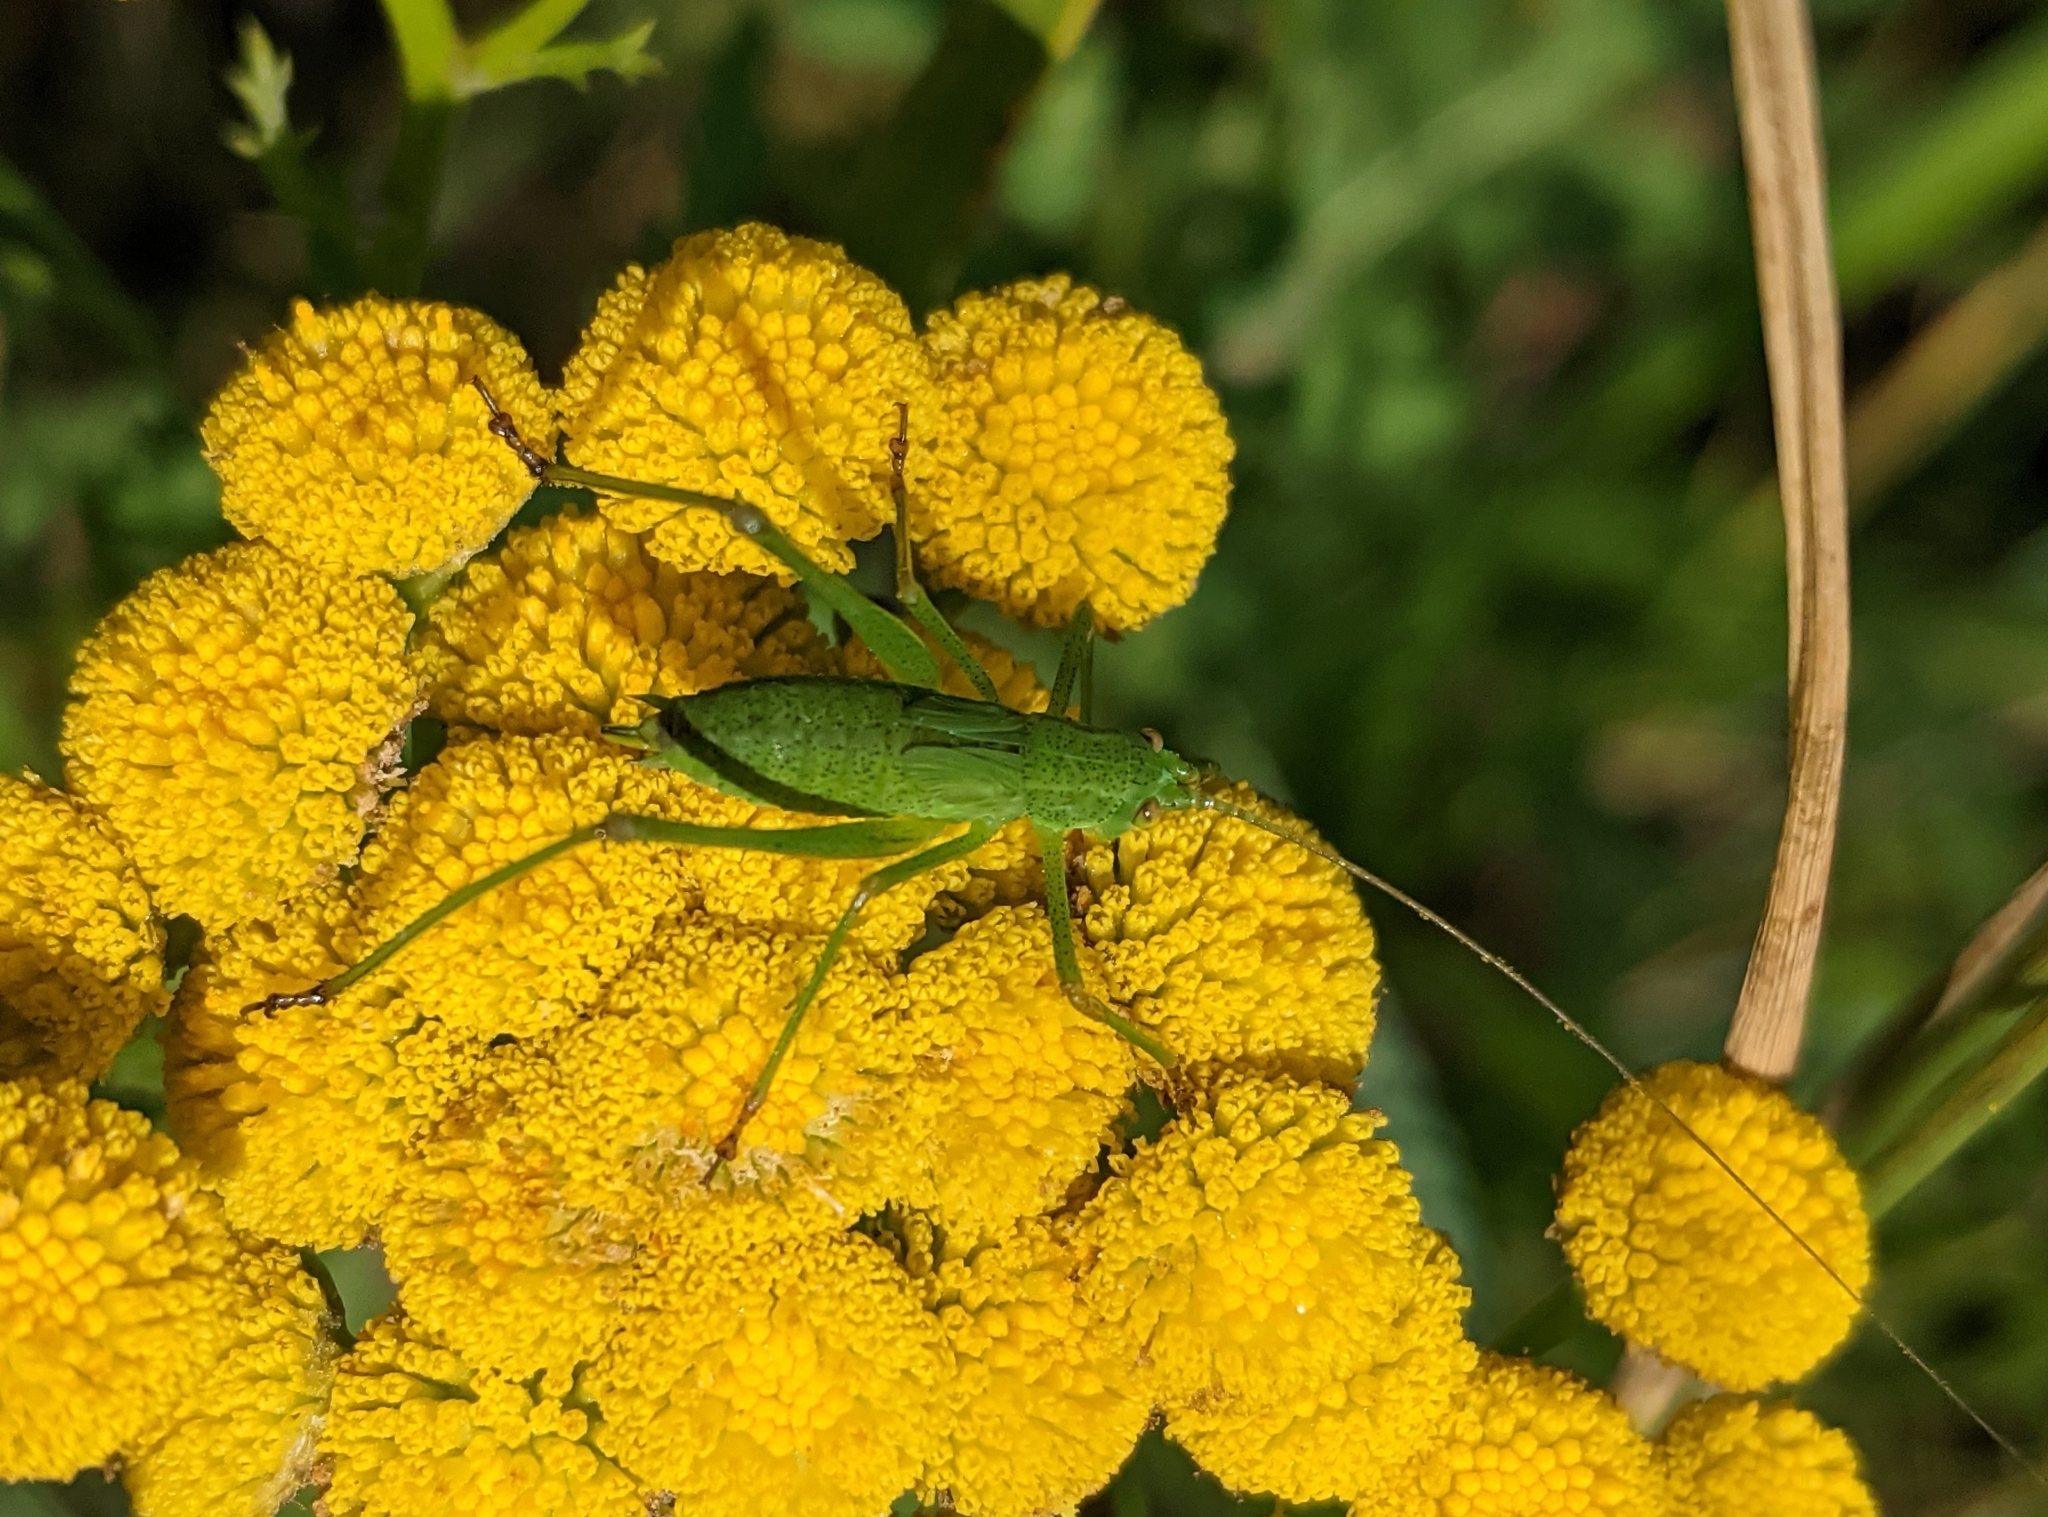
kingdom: Animalia
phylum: Arthropoda
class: Insecta
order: Orthoptera
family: Tettigoniidae
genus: Phaneroptera
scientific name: Phaneroptera falcata
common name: Sickle-bearing bush-cricket
